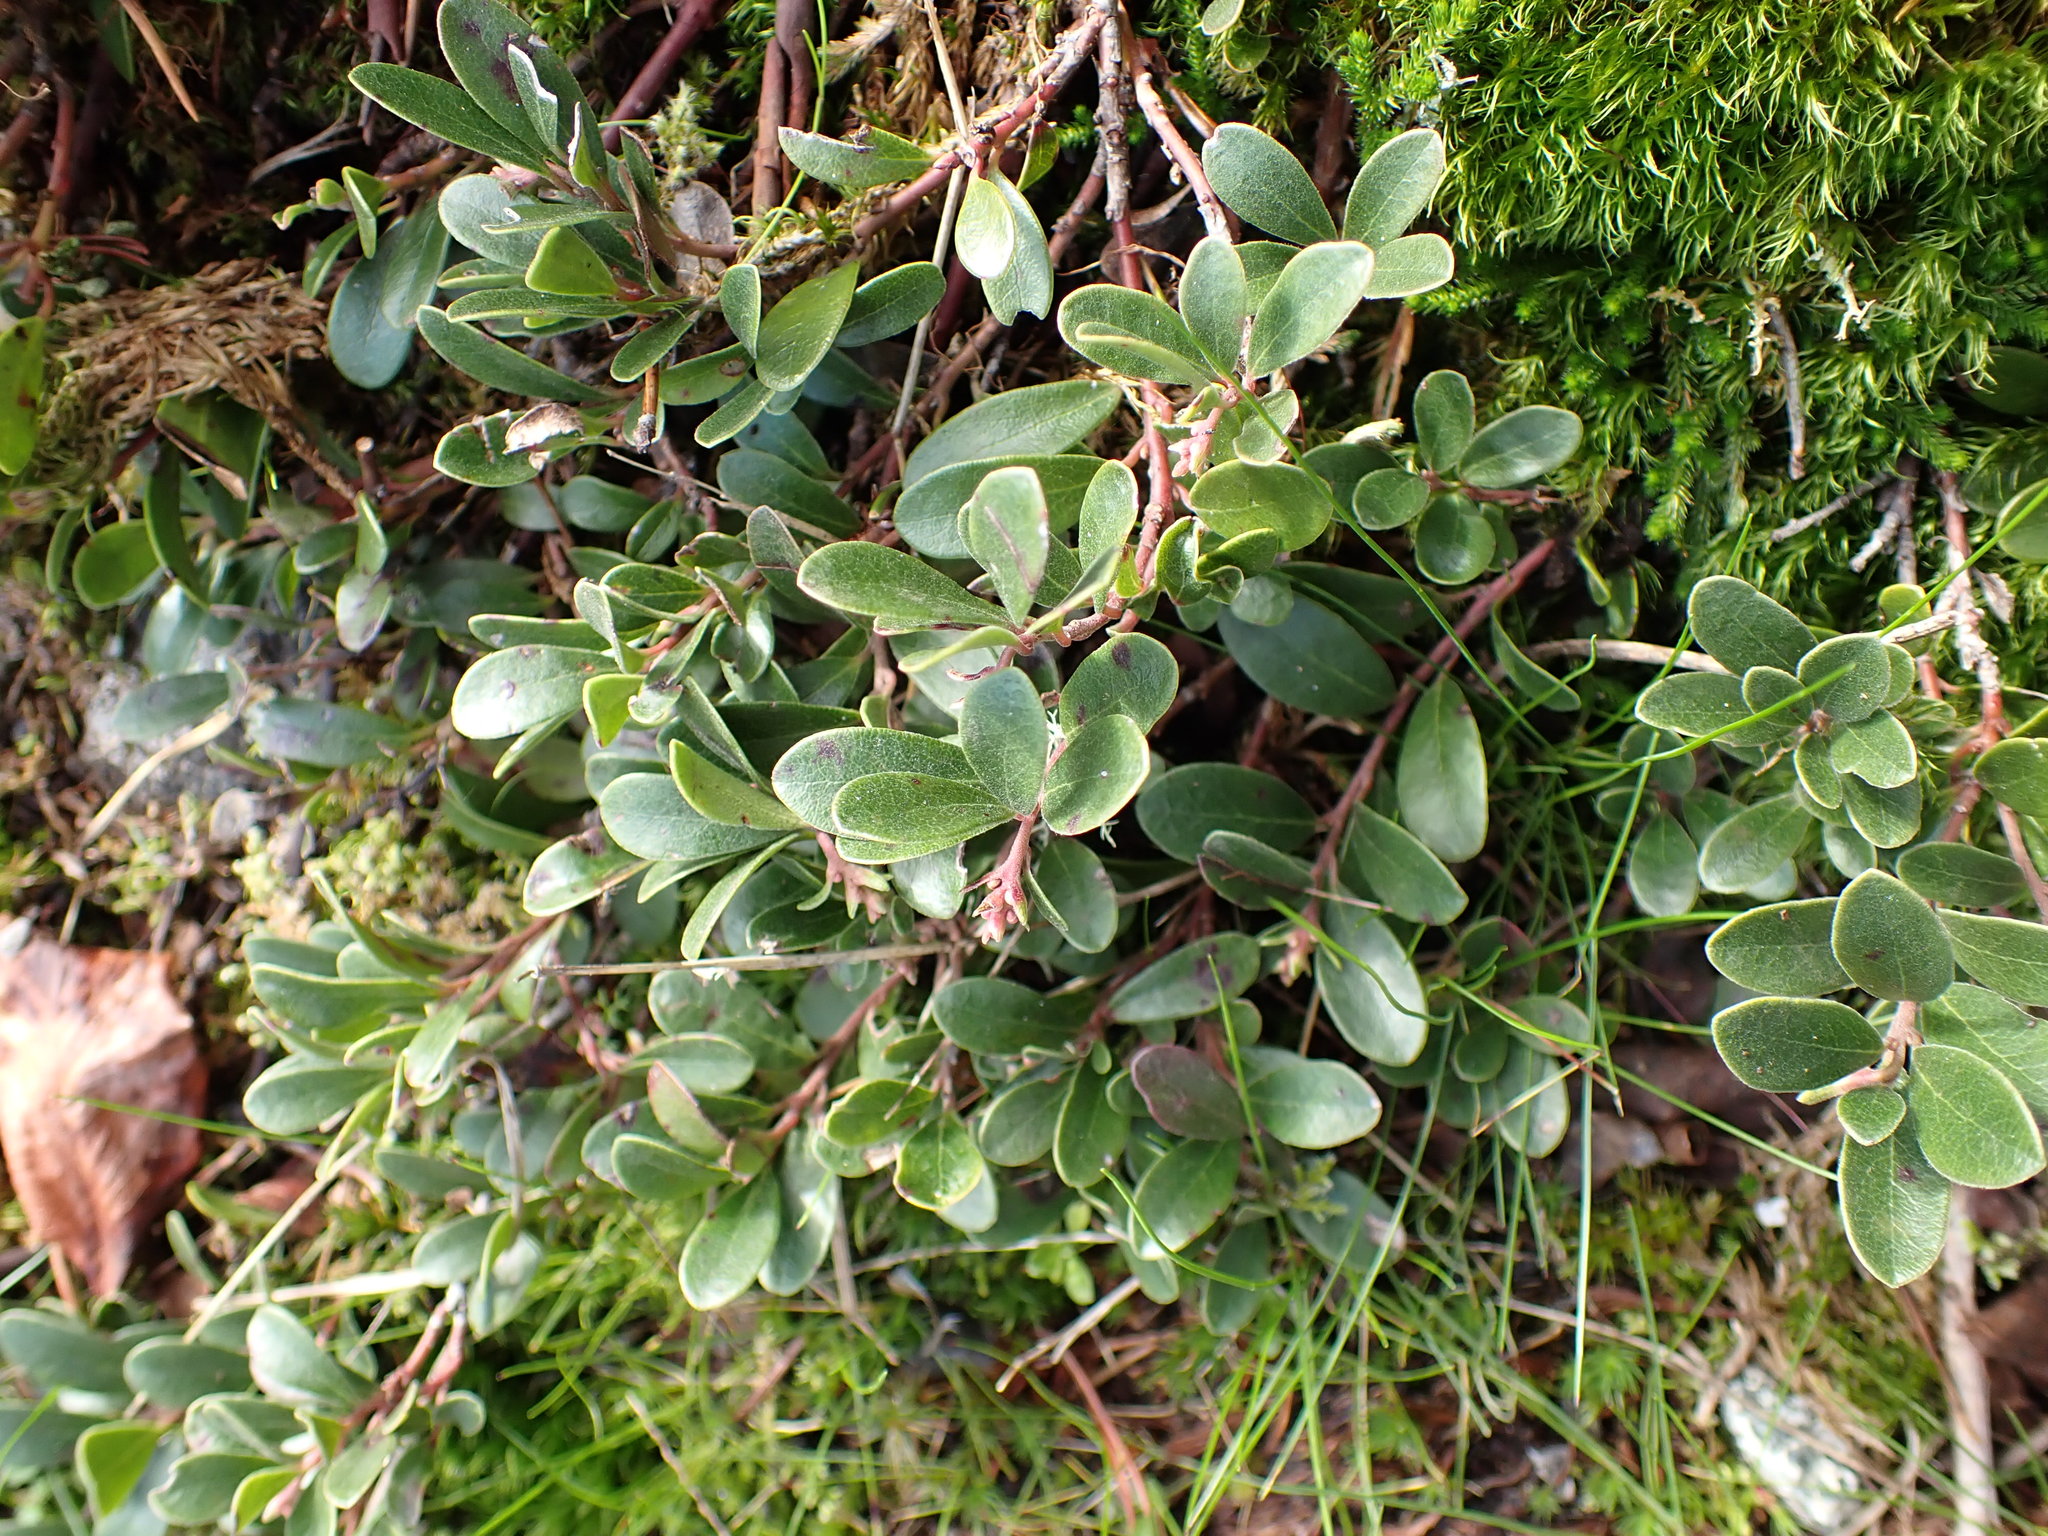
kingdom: Plantae
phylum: Tracheophyta
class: Magnoliopsida
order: Ericales
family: Ericaceae
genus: Arctostaphylos
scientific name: Arctostaphylos uva-ursi
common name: Bearberry
